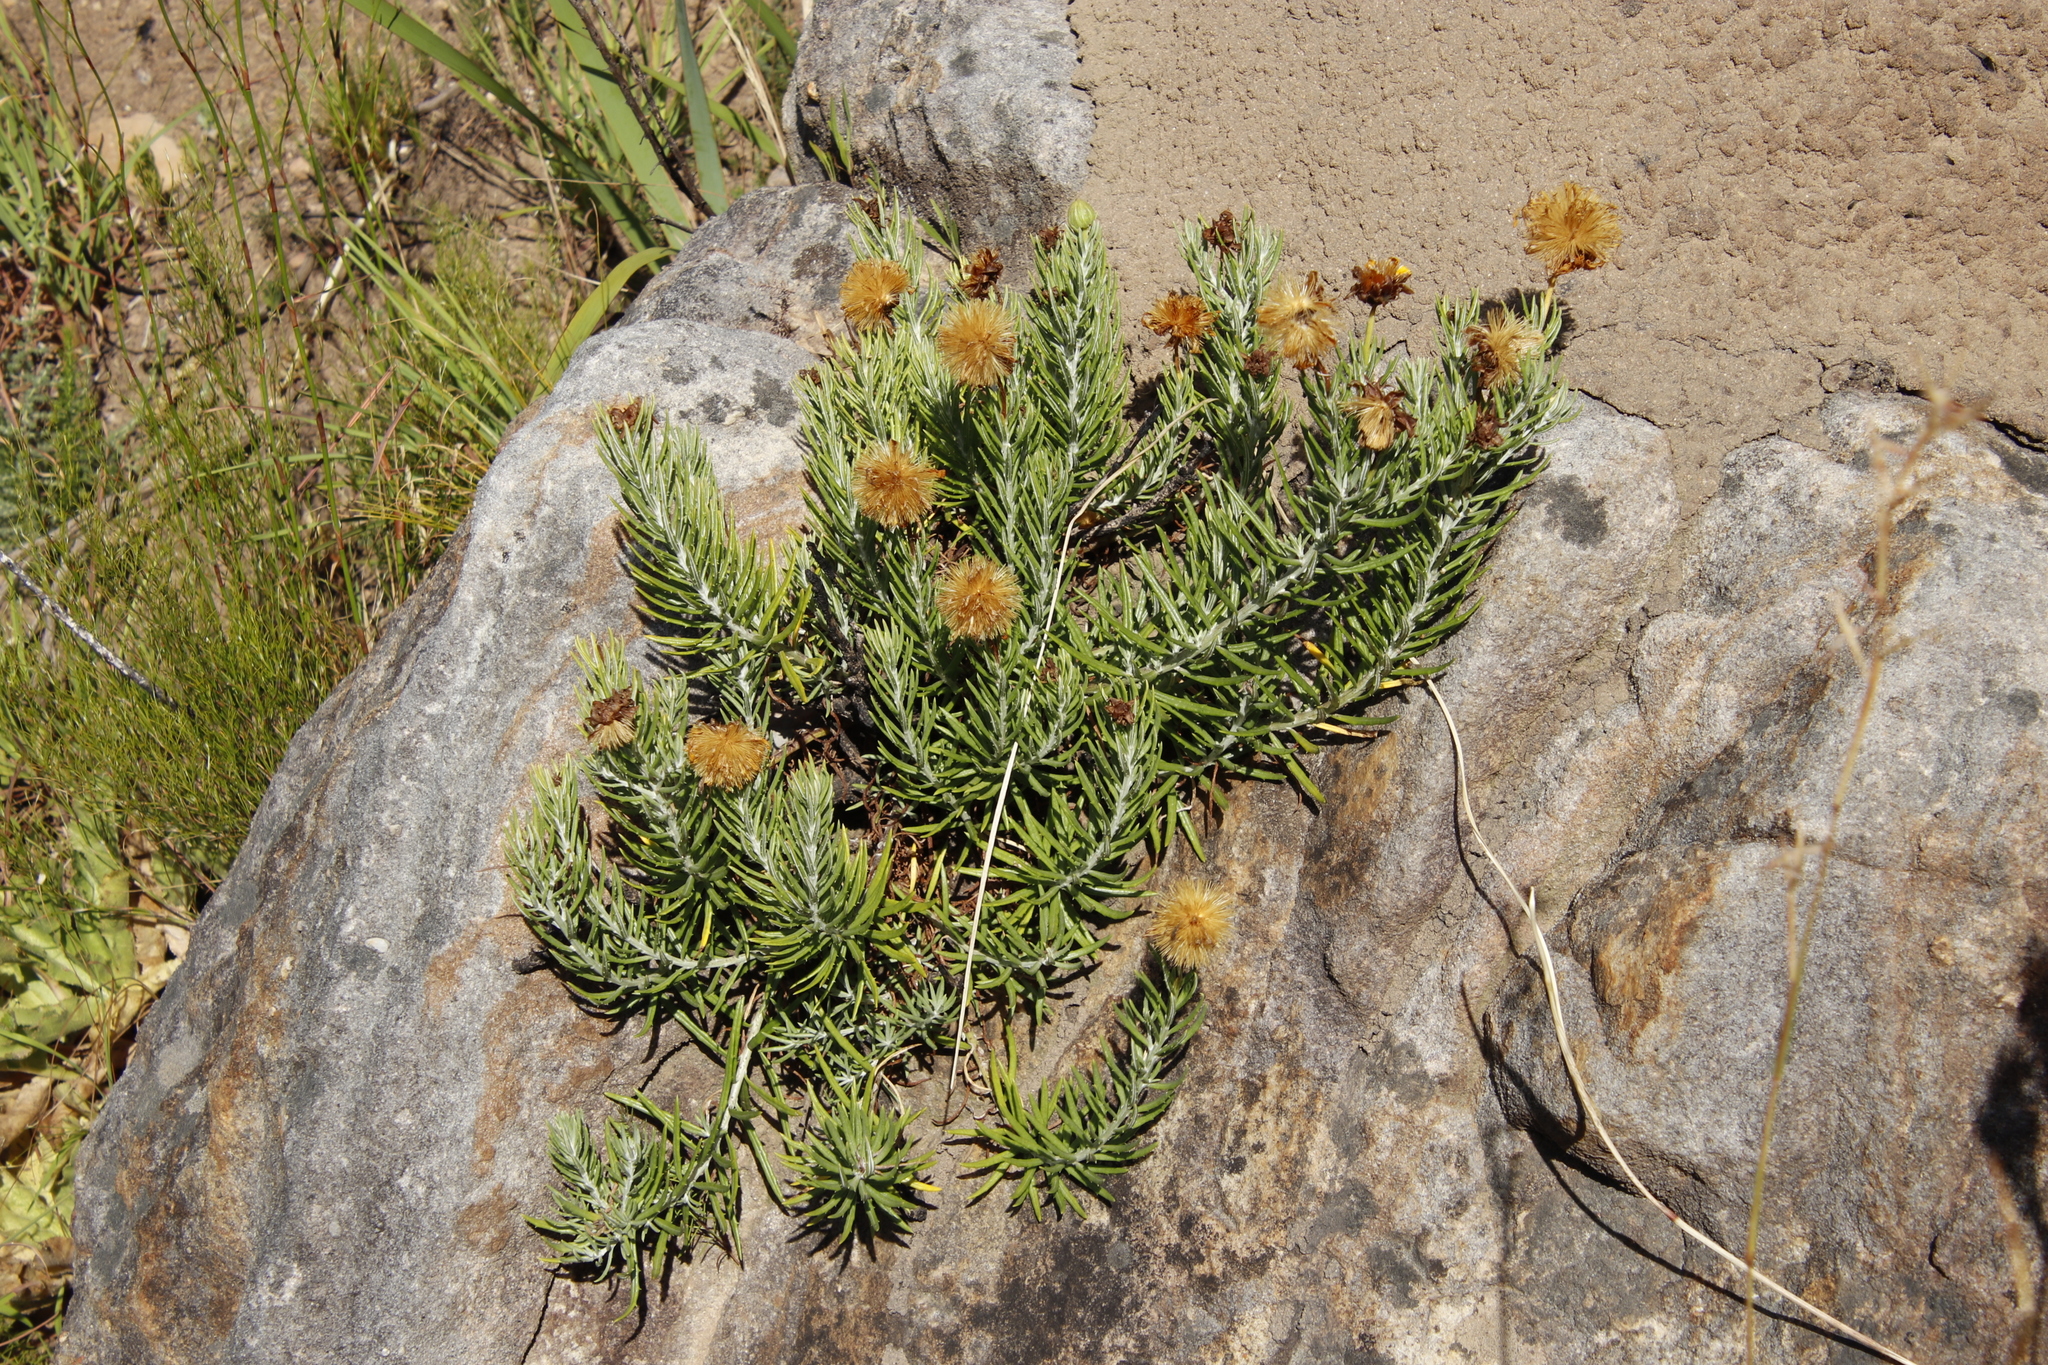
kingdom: Plantae
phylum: Tracheophyta
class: Magnoliopsida
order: Asterales
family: Asteraceae
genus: Heterolepis
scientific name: Heterolepis aliena
